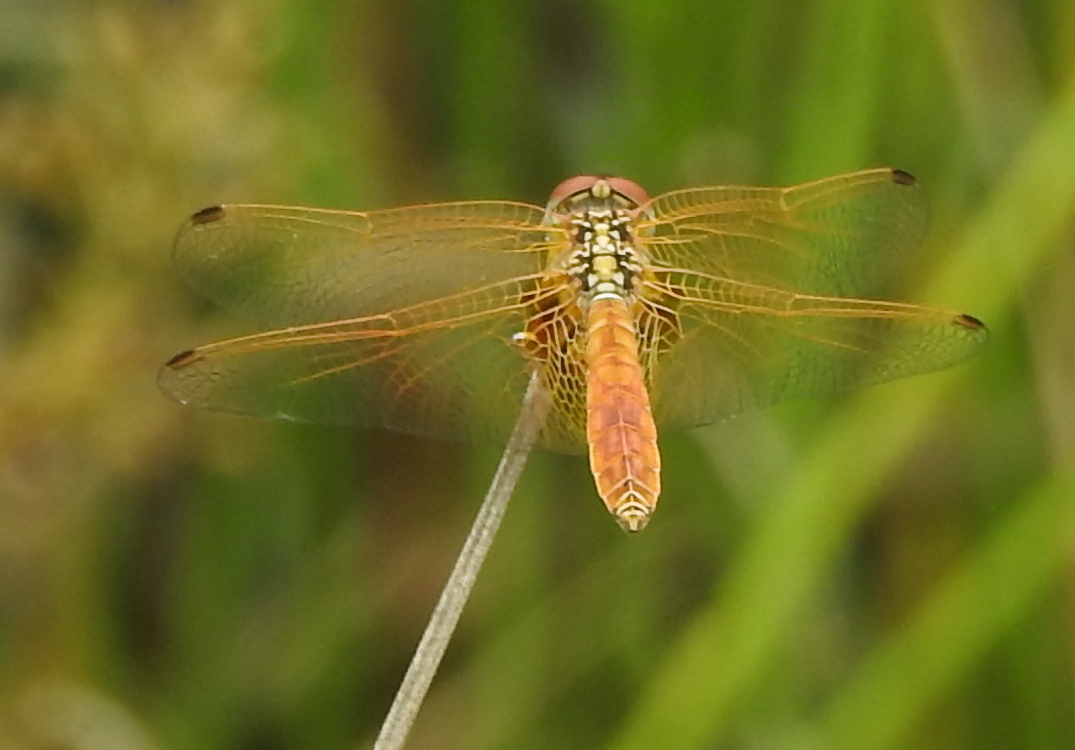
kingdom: Animalia
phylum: Arthropoda
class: Insecta
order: Odonata
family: Libellulidae
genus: Trithemis
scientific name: Trithemis aurora
